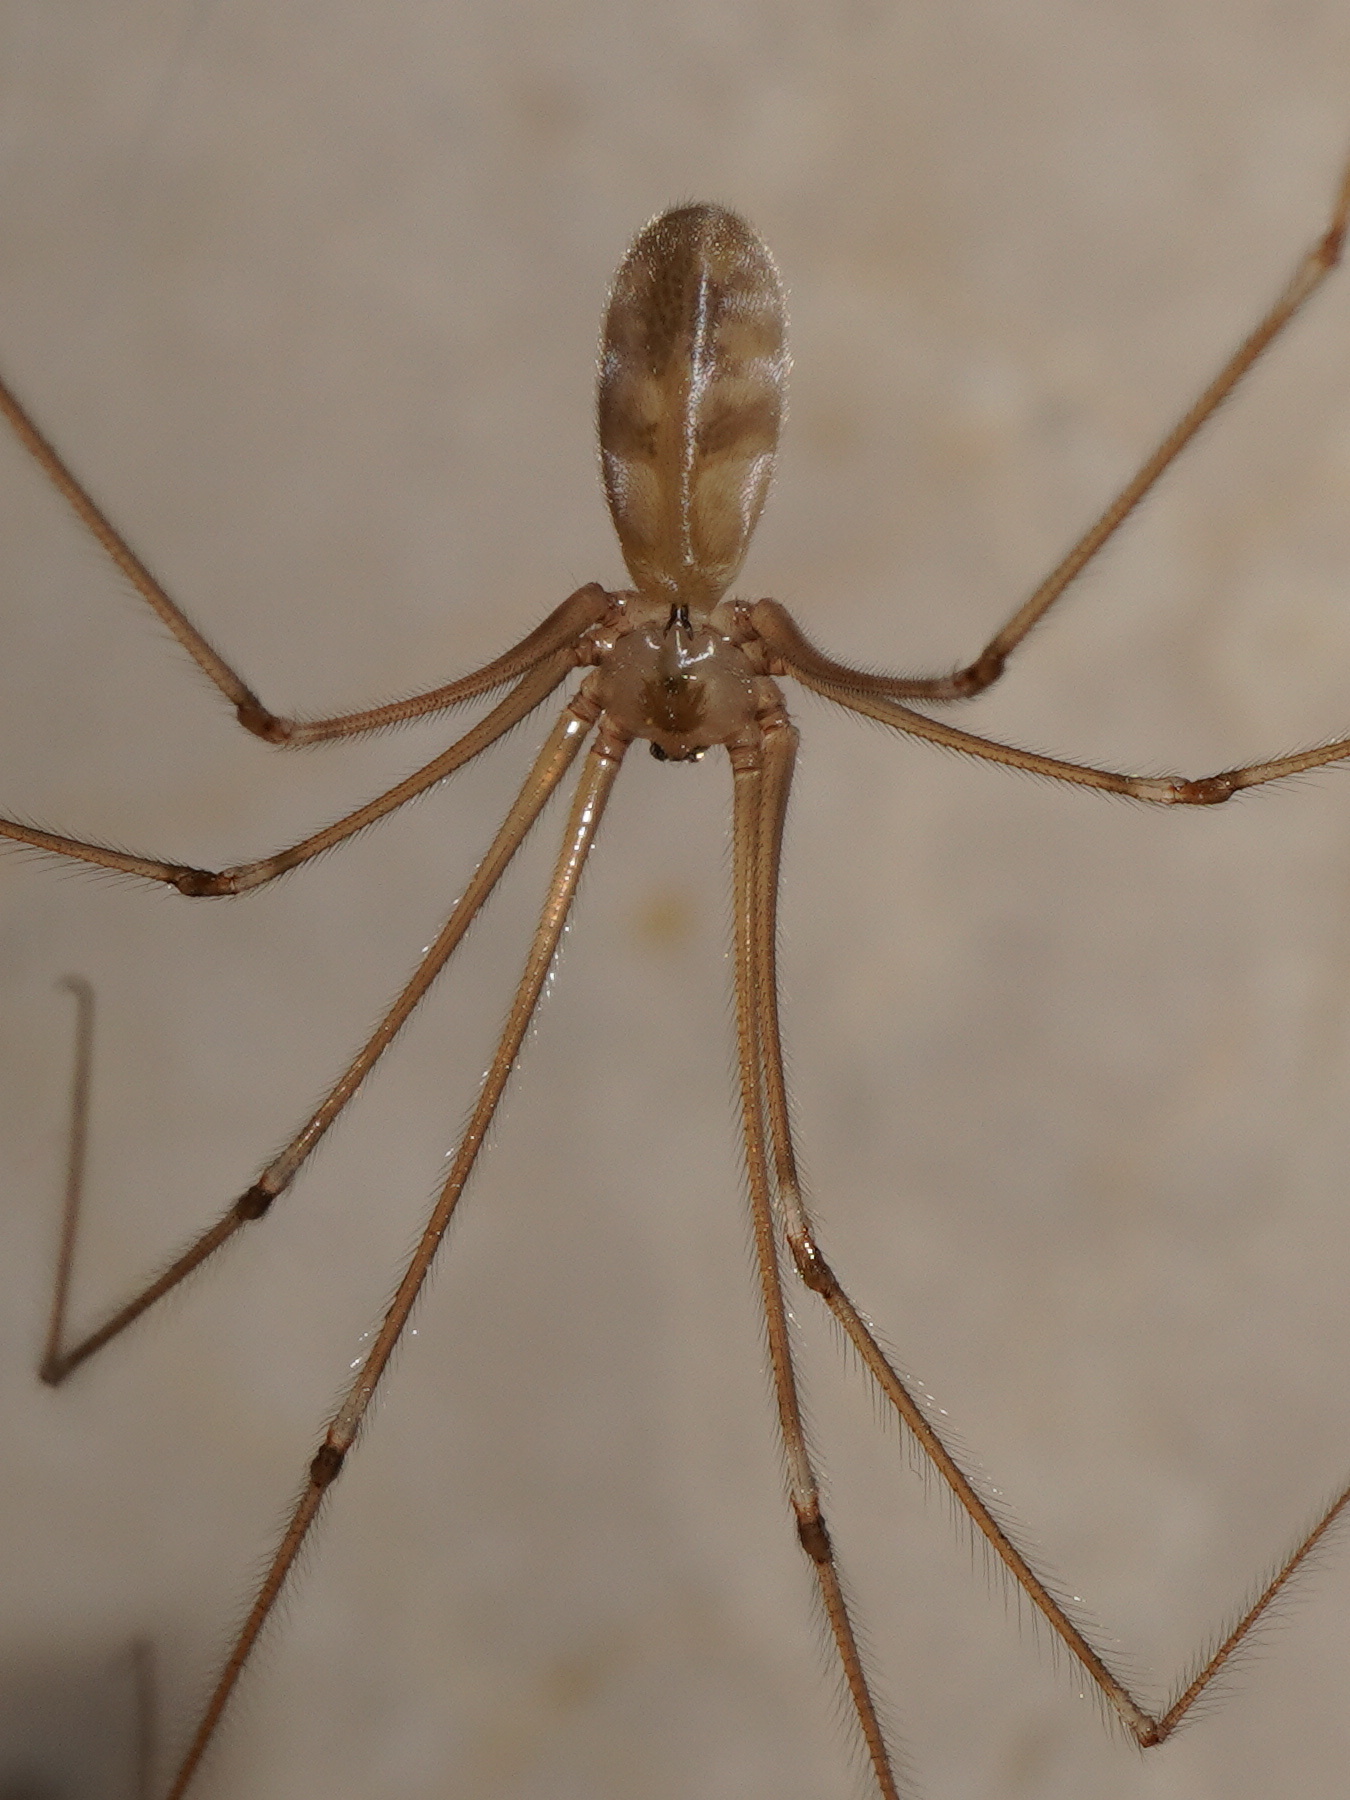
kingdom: Animalia
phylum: Arthropoda
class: Arachnida
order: Araneae
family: Pholcidae
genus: Pholcus
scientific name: Pholcus phalangioides
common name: Longbodied cellar spider
